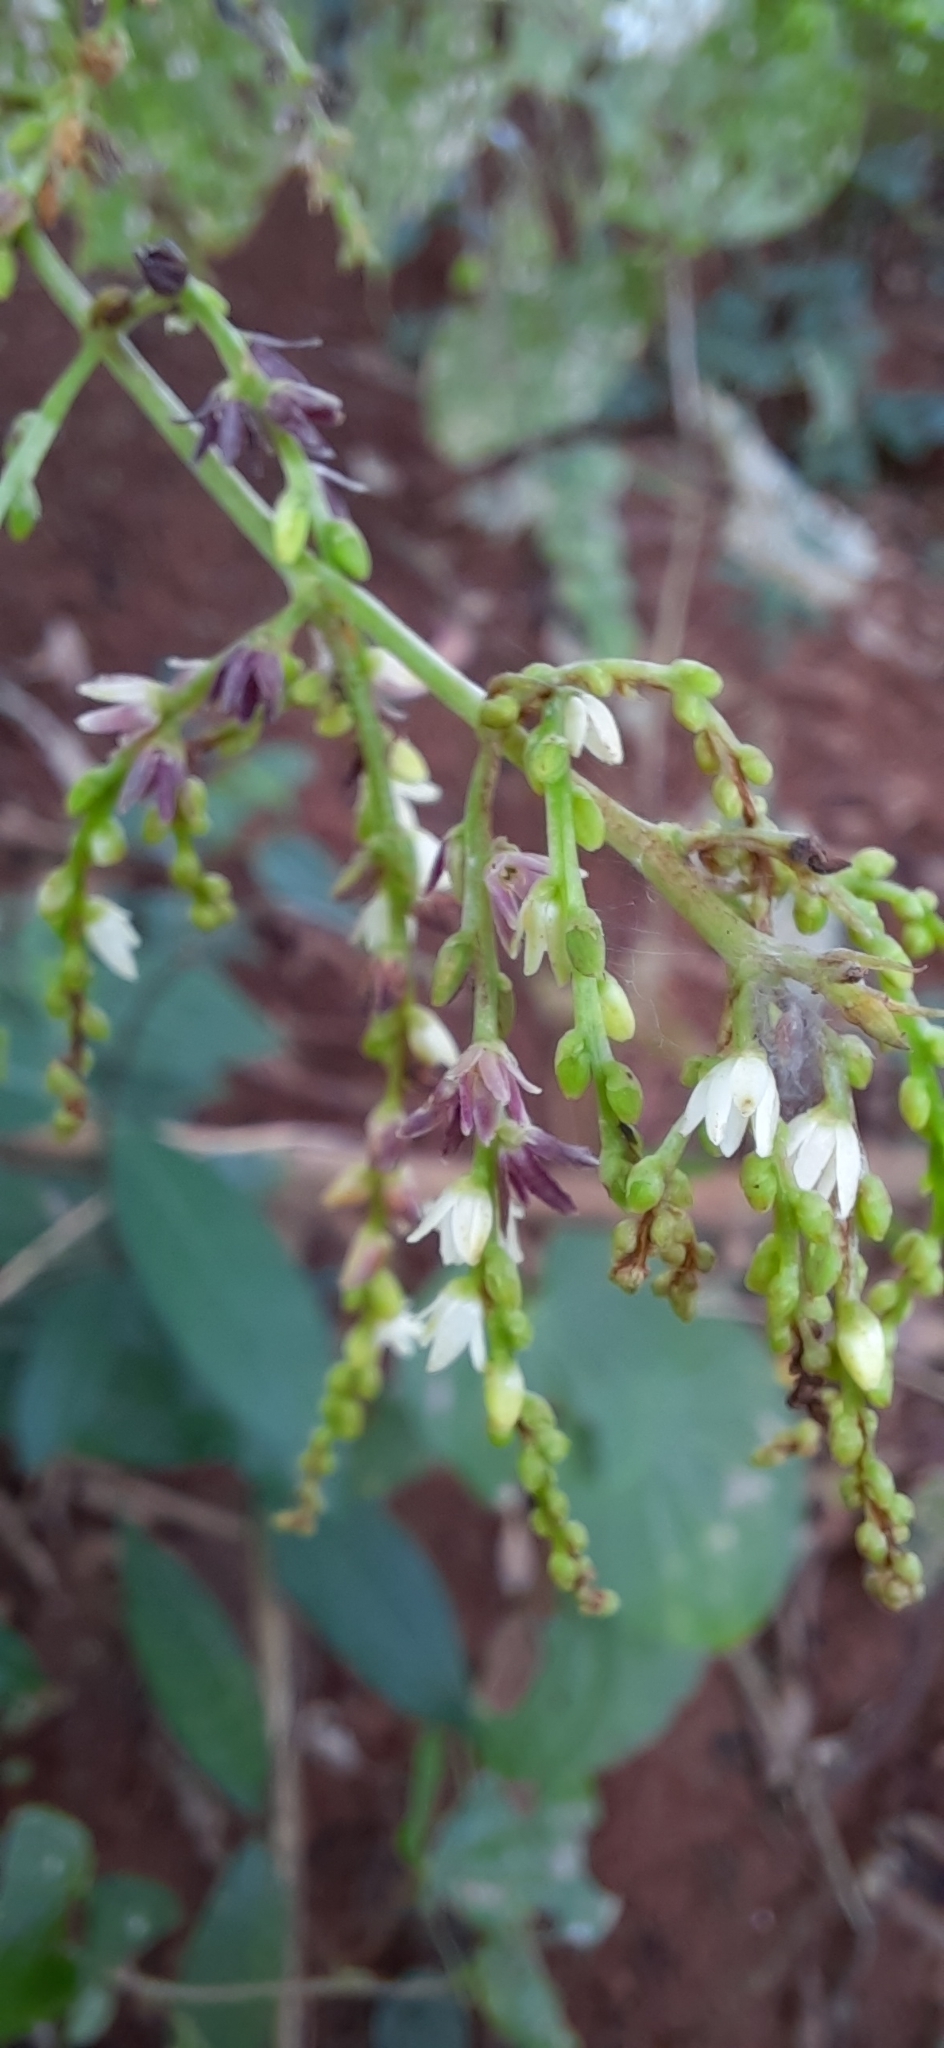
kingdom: Plantae
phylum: Tracheophyta
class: Liliopsida
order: Dioscoreales
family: Dioscoreaceae
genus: Dioscorea
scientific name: Dioscorea bulbifera
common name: Air yam
